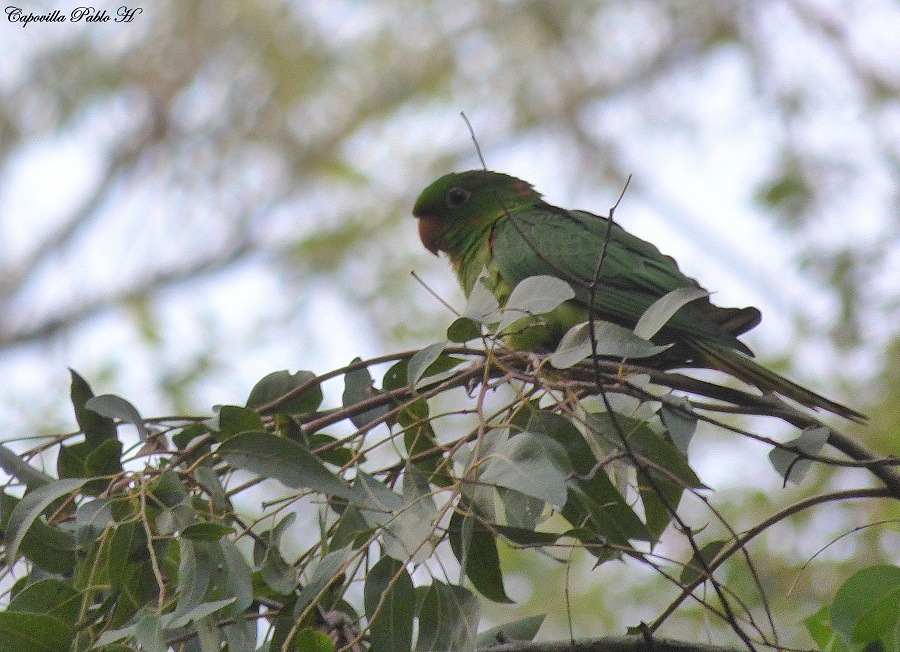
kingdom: Animalia
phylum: Chordata
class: Aves
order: Psittaciformes
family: Psittacidae
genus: Aratinga
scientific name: Aratinga leucophthalma
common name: White-eyed parakeet
